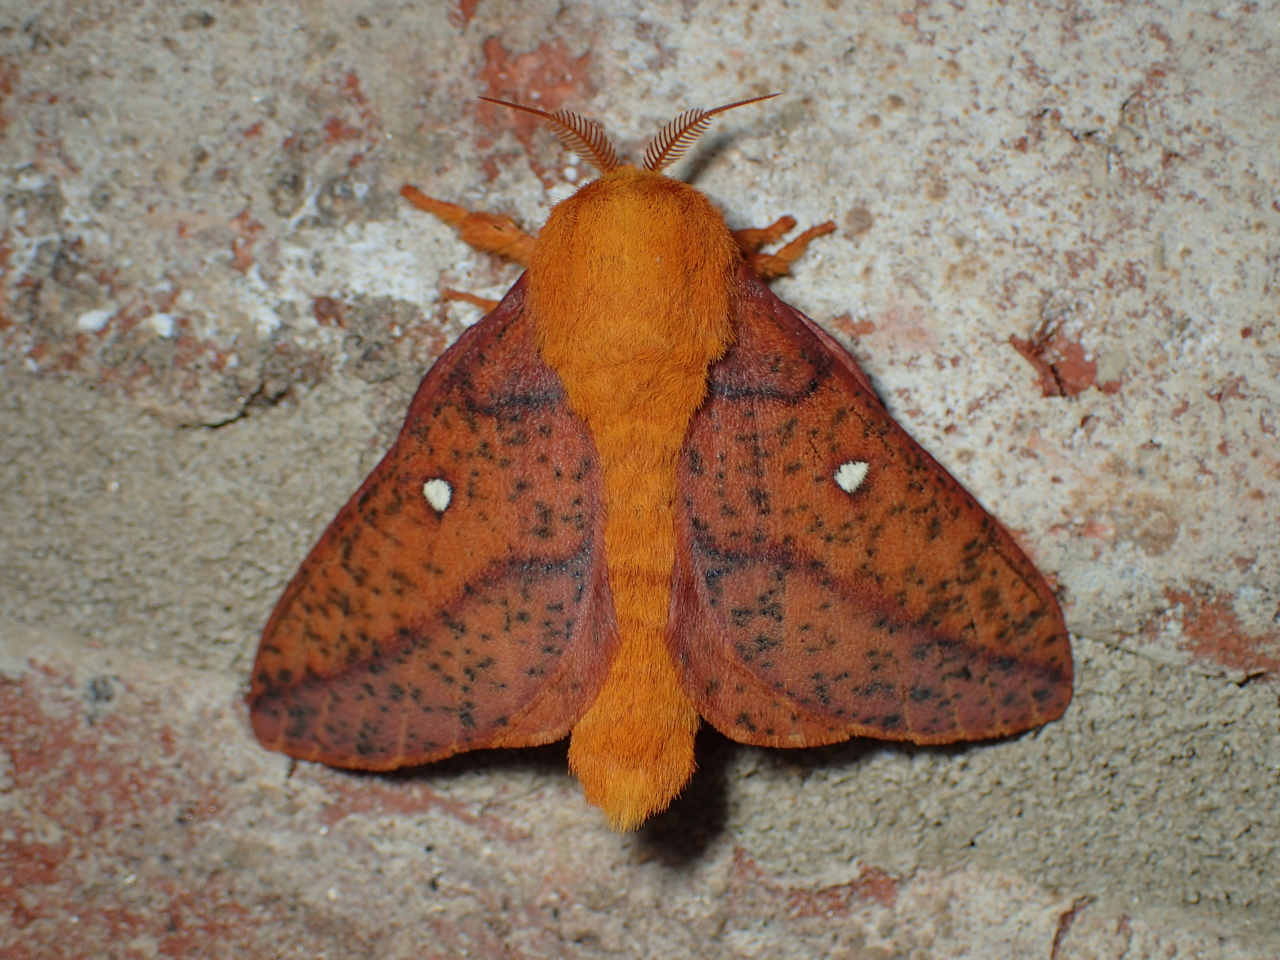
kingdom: Animalia
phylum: Arthropoda
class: Insecta
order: Lepidoptera
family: Saturniidae
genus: Anisota
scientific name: Anisota stigma
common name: Spiny oakworm moth
